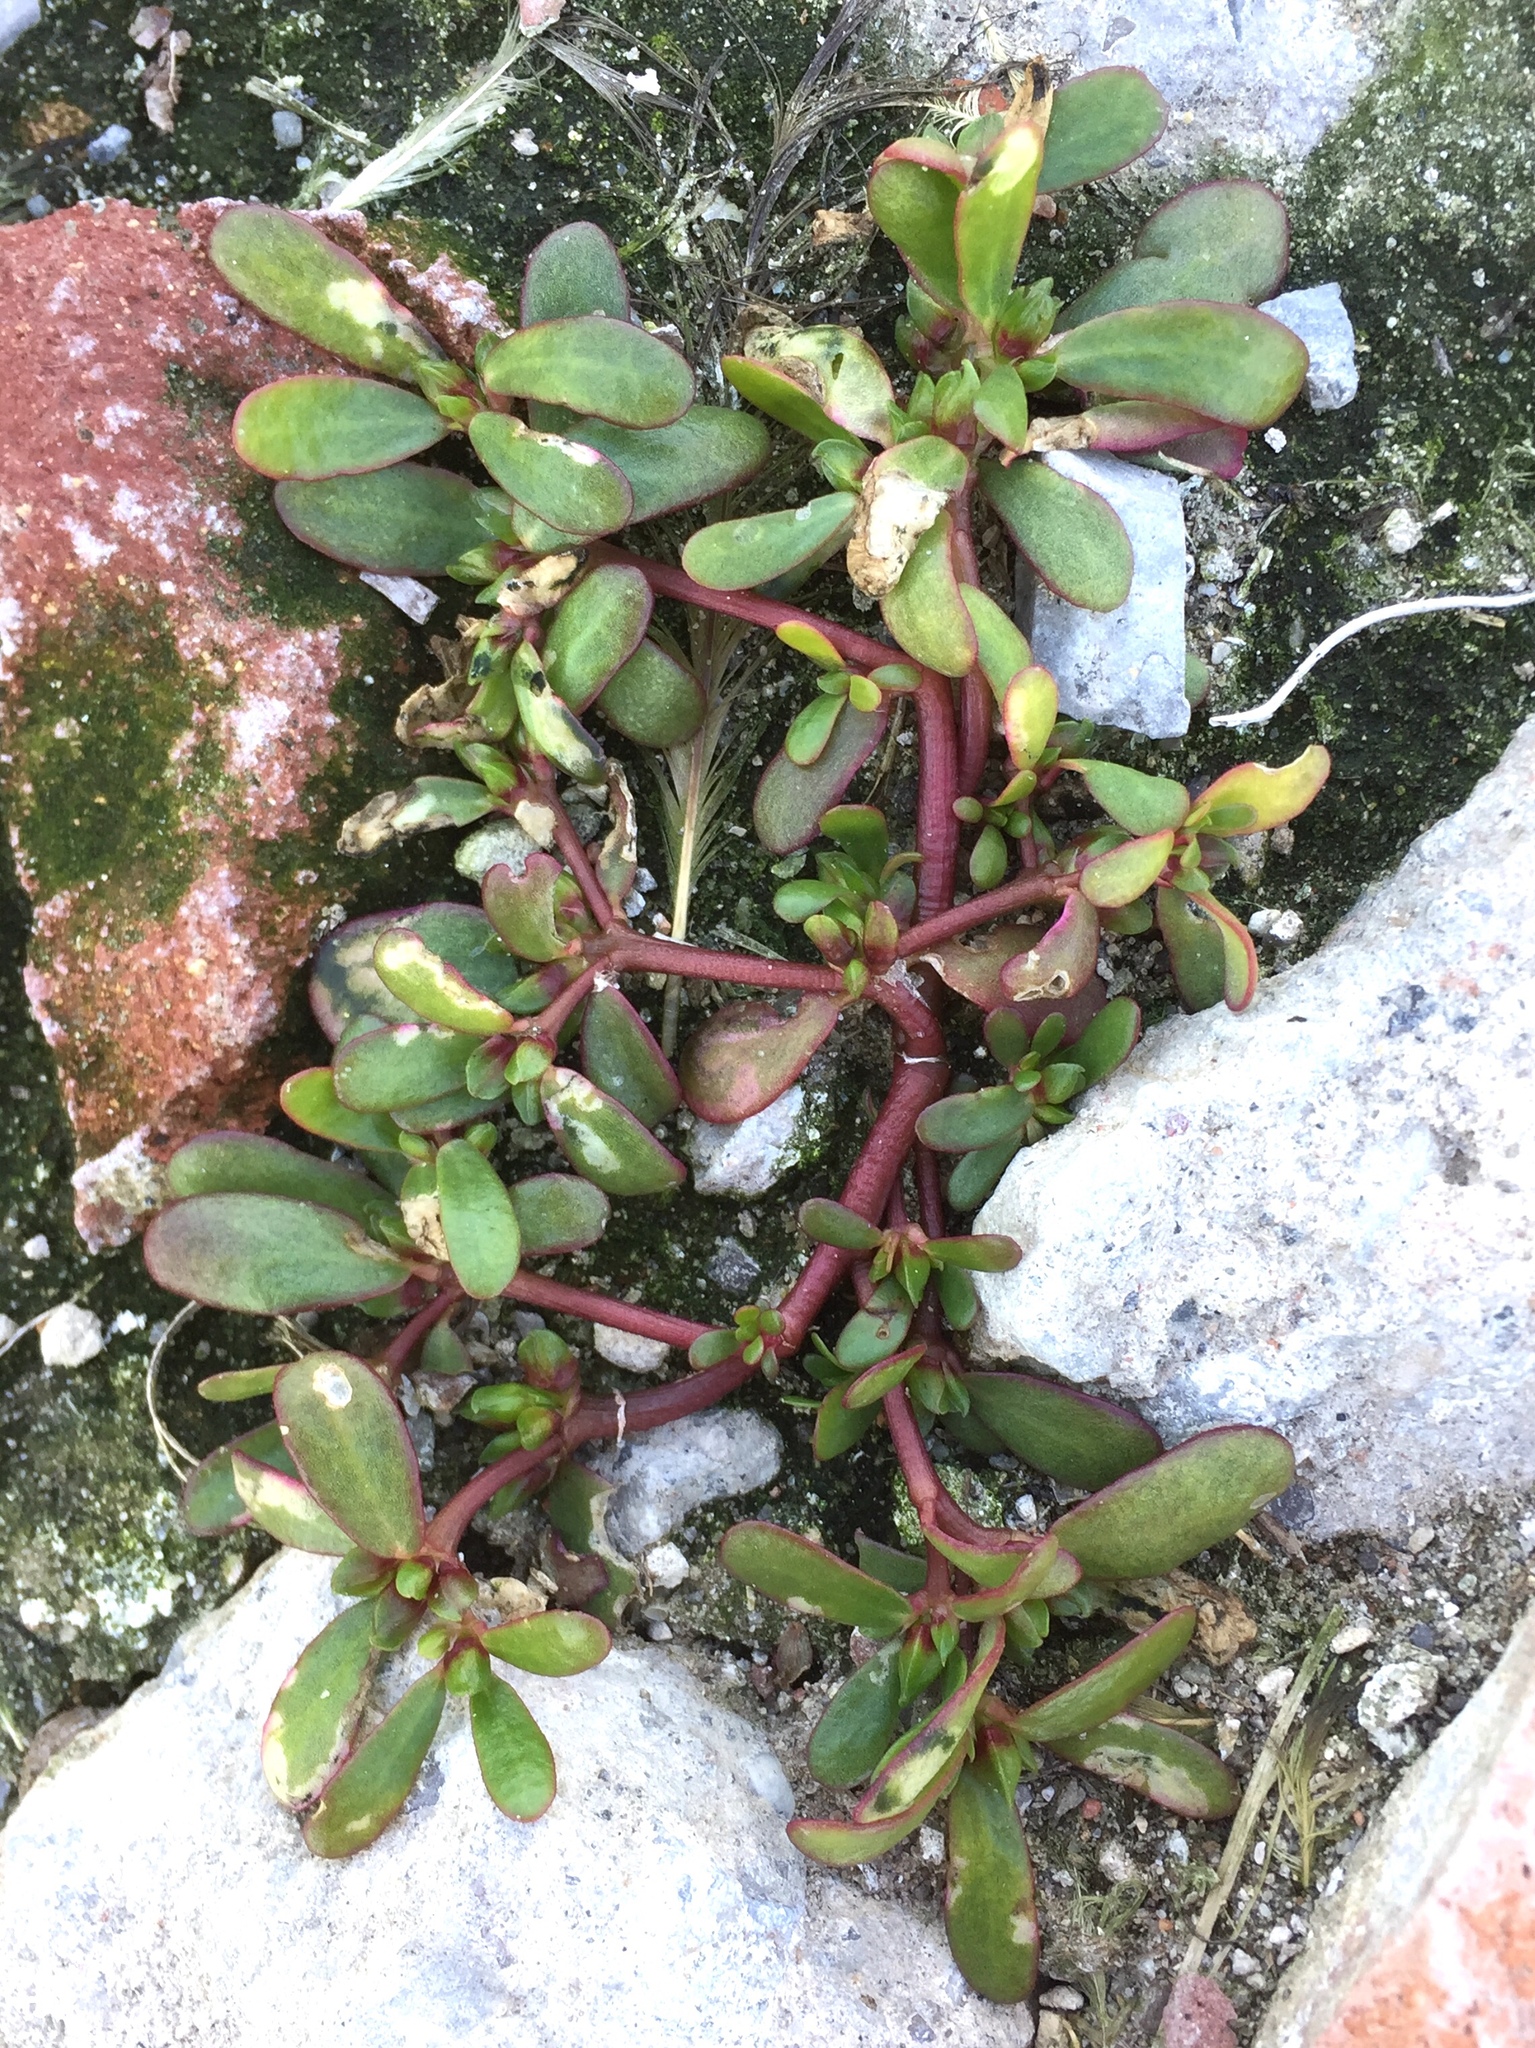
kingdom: Plantae
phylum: Tracheophyta
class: Magnoliopsida
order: Caryophyllales
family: Portulacaceae
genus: Portulaca
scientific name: Portulaca oleracea
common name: Common purslane
